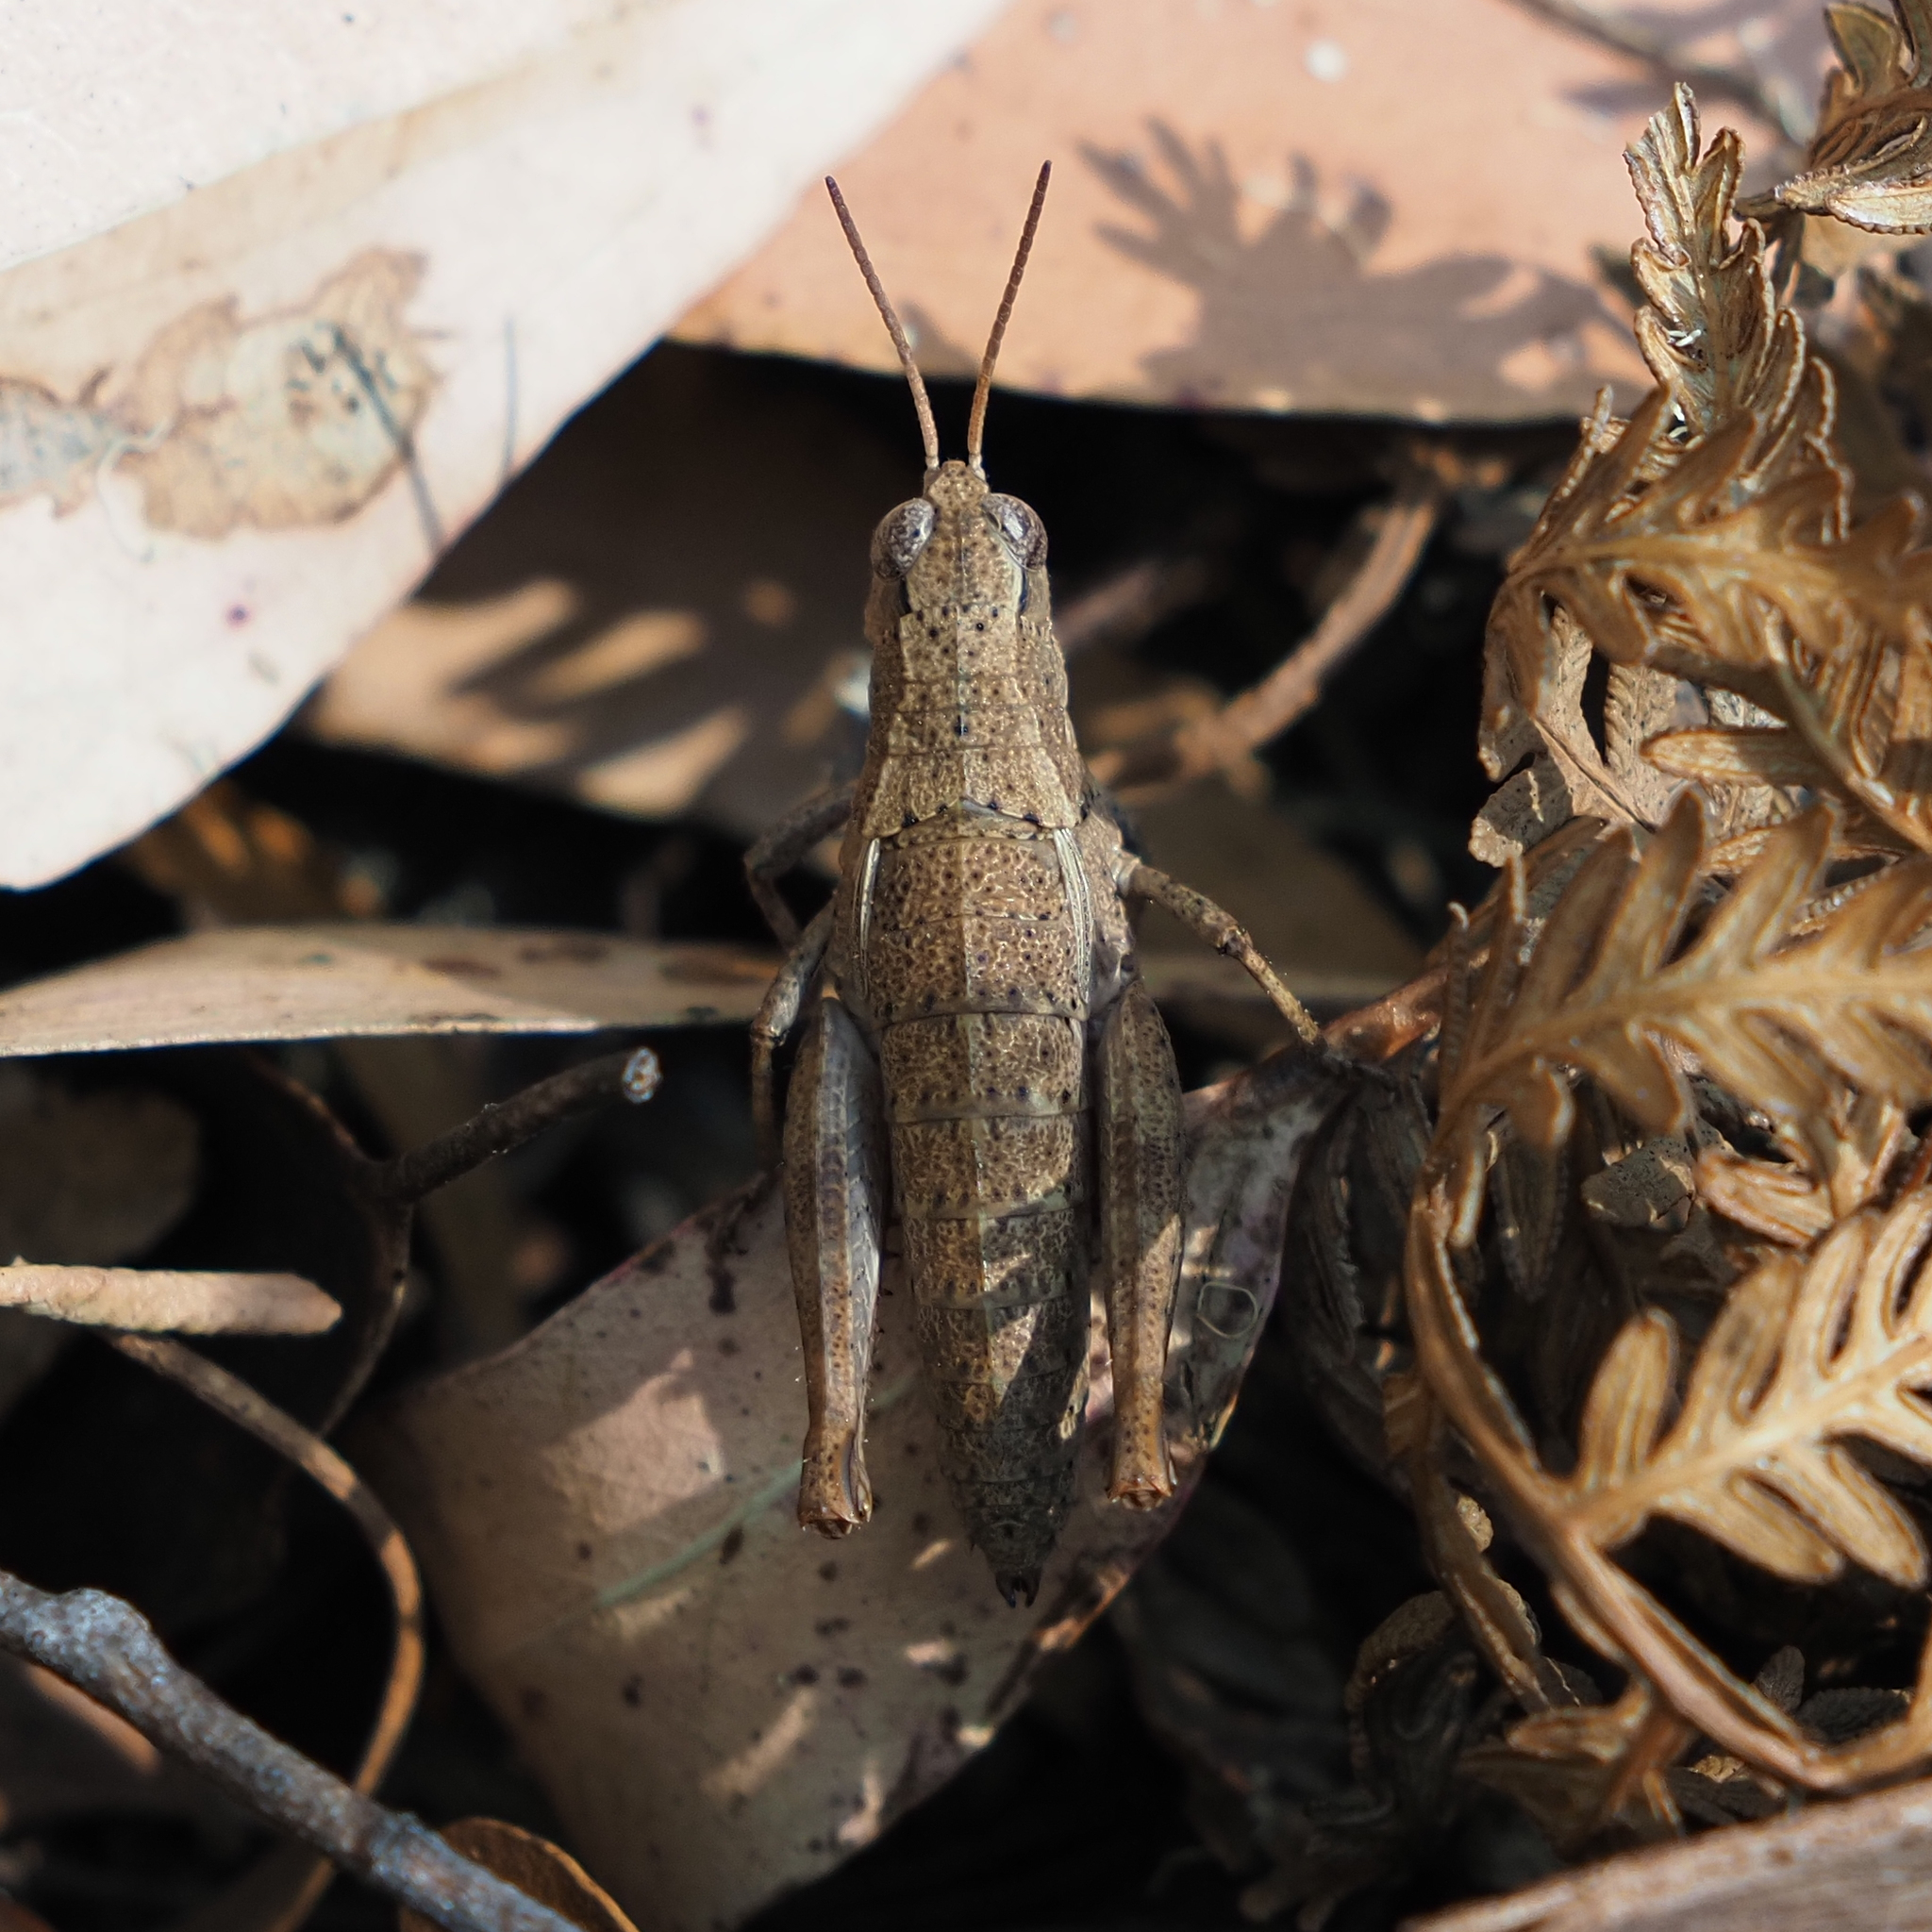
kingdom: Animalia
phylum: Arthropoda
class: Insecta
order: Orthoptera
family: Acrididae
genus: Tasmaniacris
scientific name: Tasmaniacris tasmaniensis
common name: Tasmanian grasshopper
